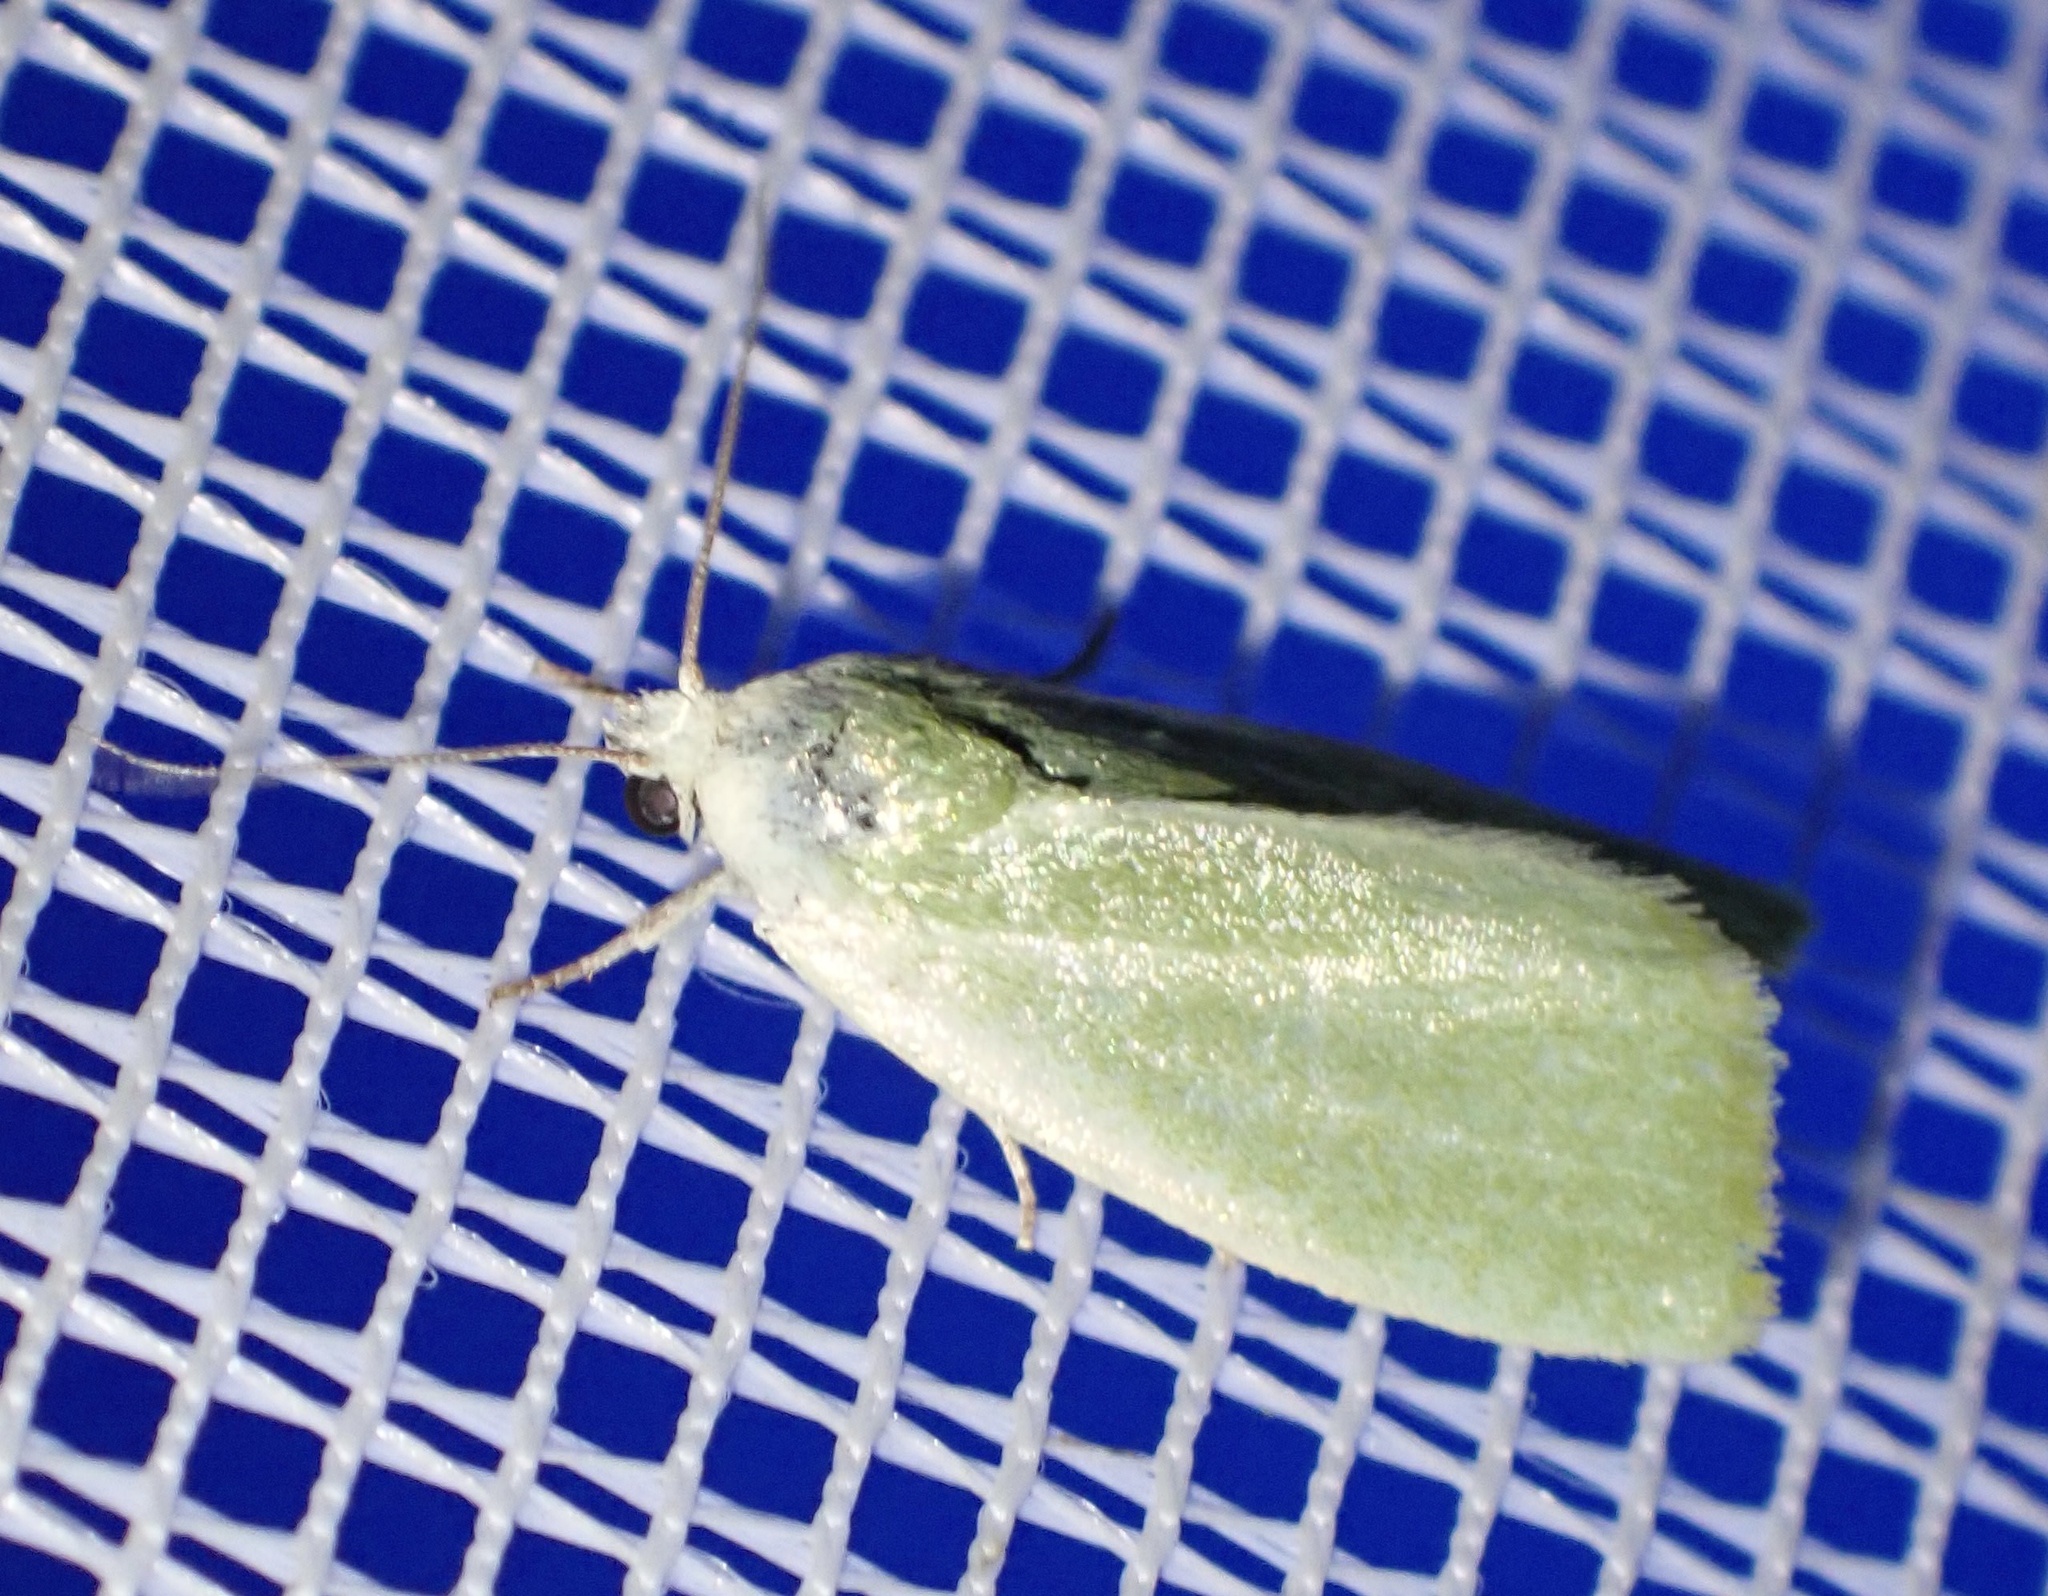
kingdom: Animalia
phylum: Arthropoda
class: Insecta
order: Lepidoptera
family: Nolidae
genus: Earias
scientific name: Earias clorana
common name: Cream-bordered green pea
